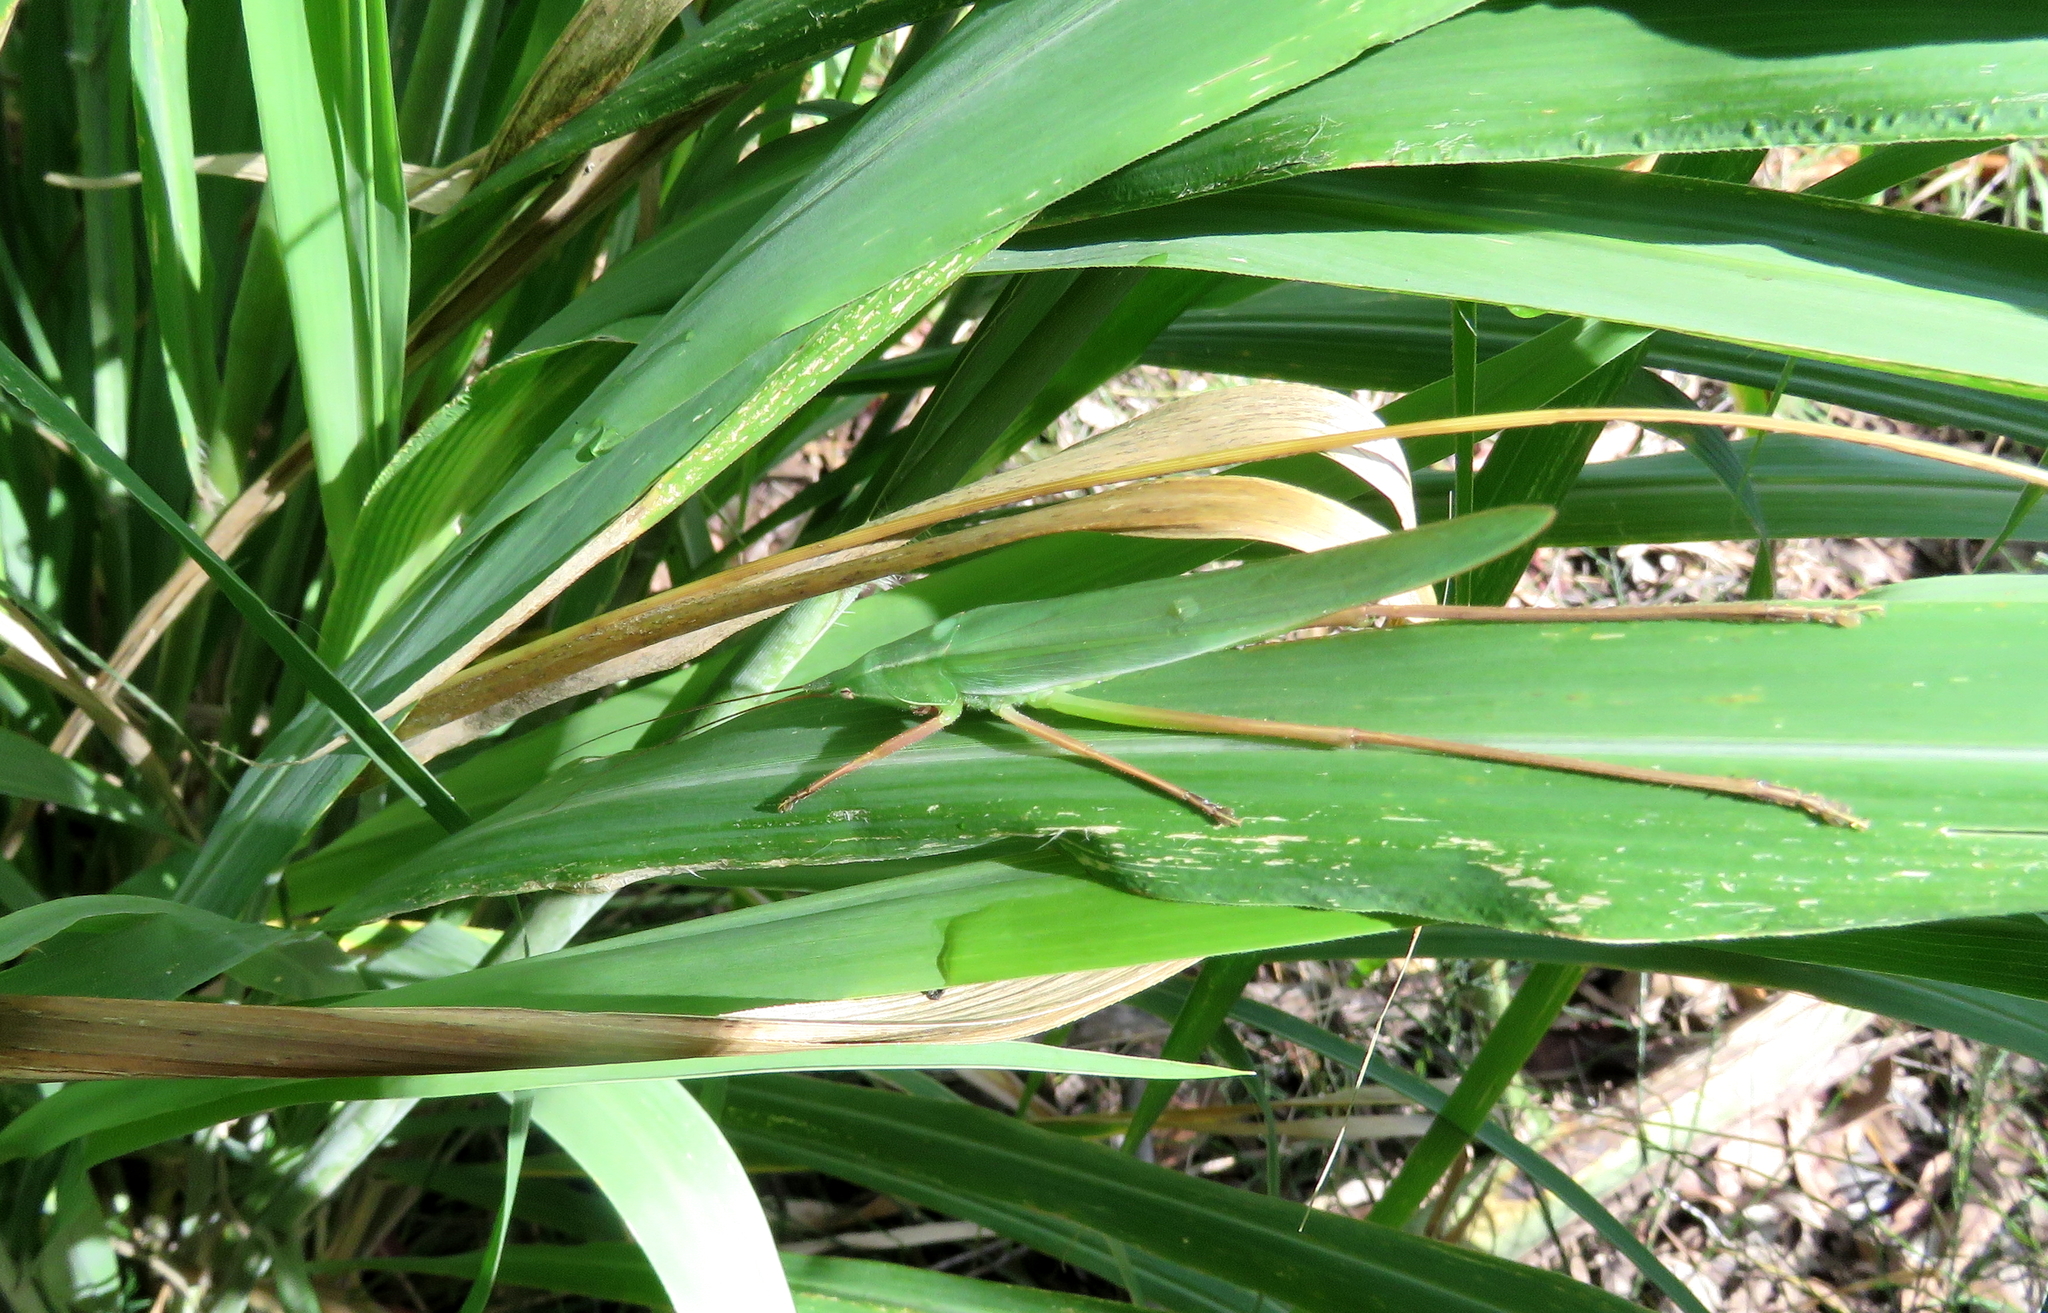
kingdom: Animalia
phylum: Arthropoda
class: Insecta
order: Orthoptera
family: Tettigoniidae
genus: Pseudorhynchus
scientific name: Pseudorhynchus lessonii
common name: Lesson's mimicking snout nose
